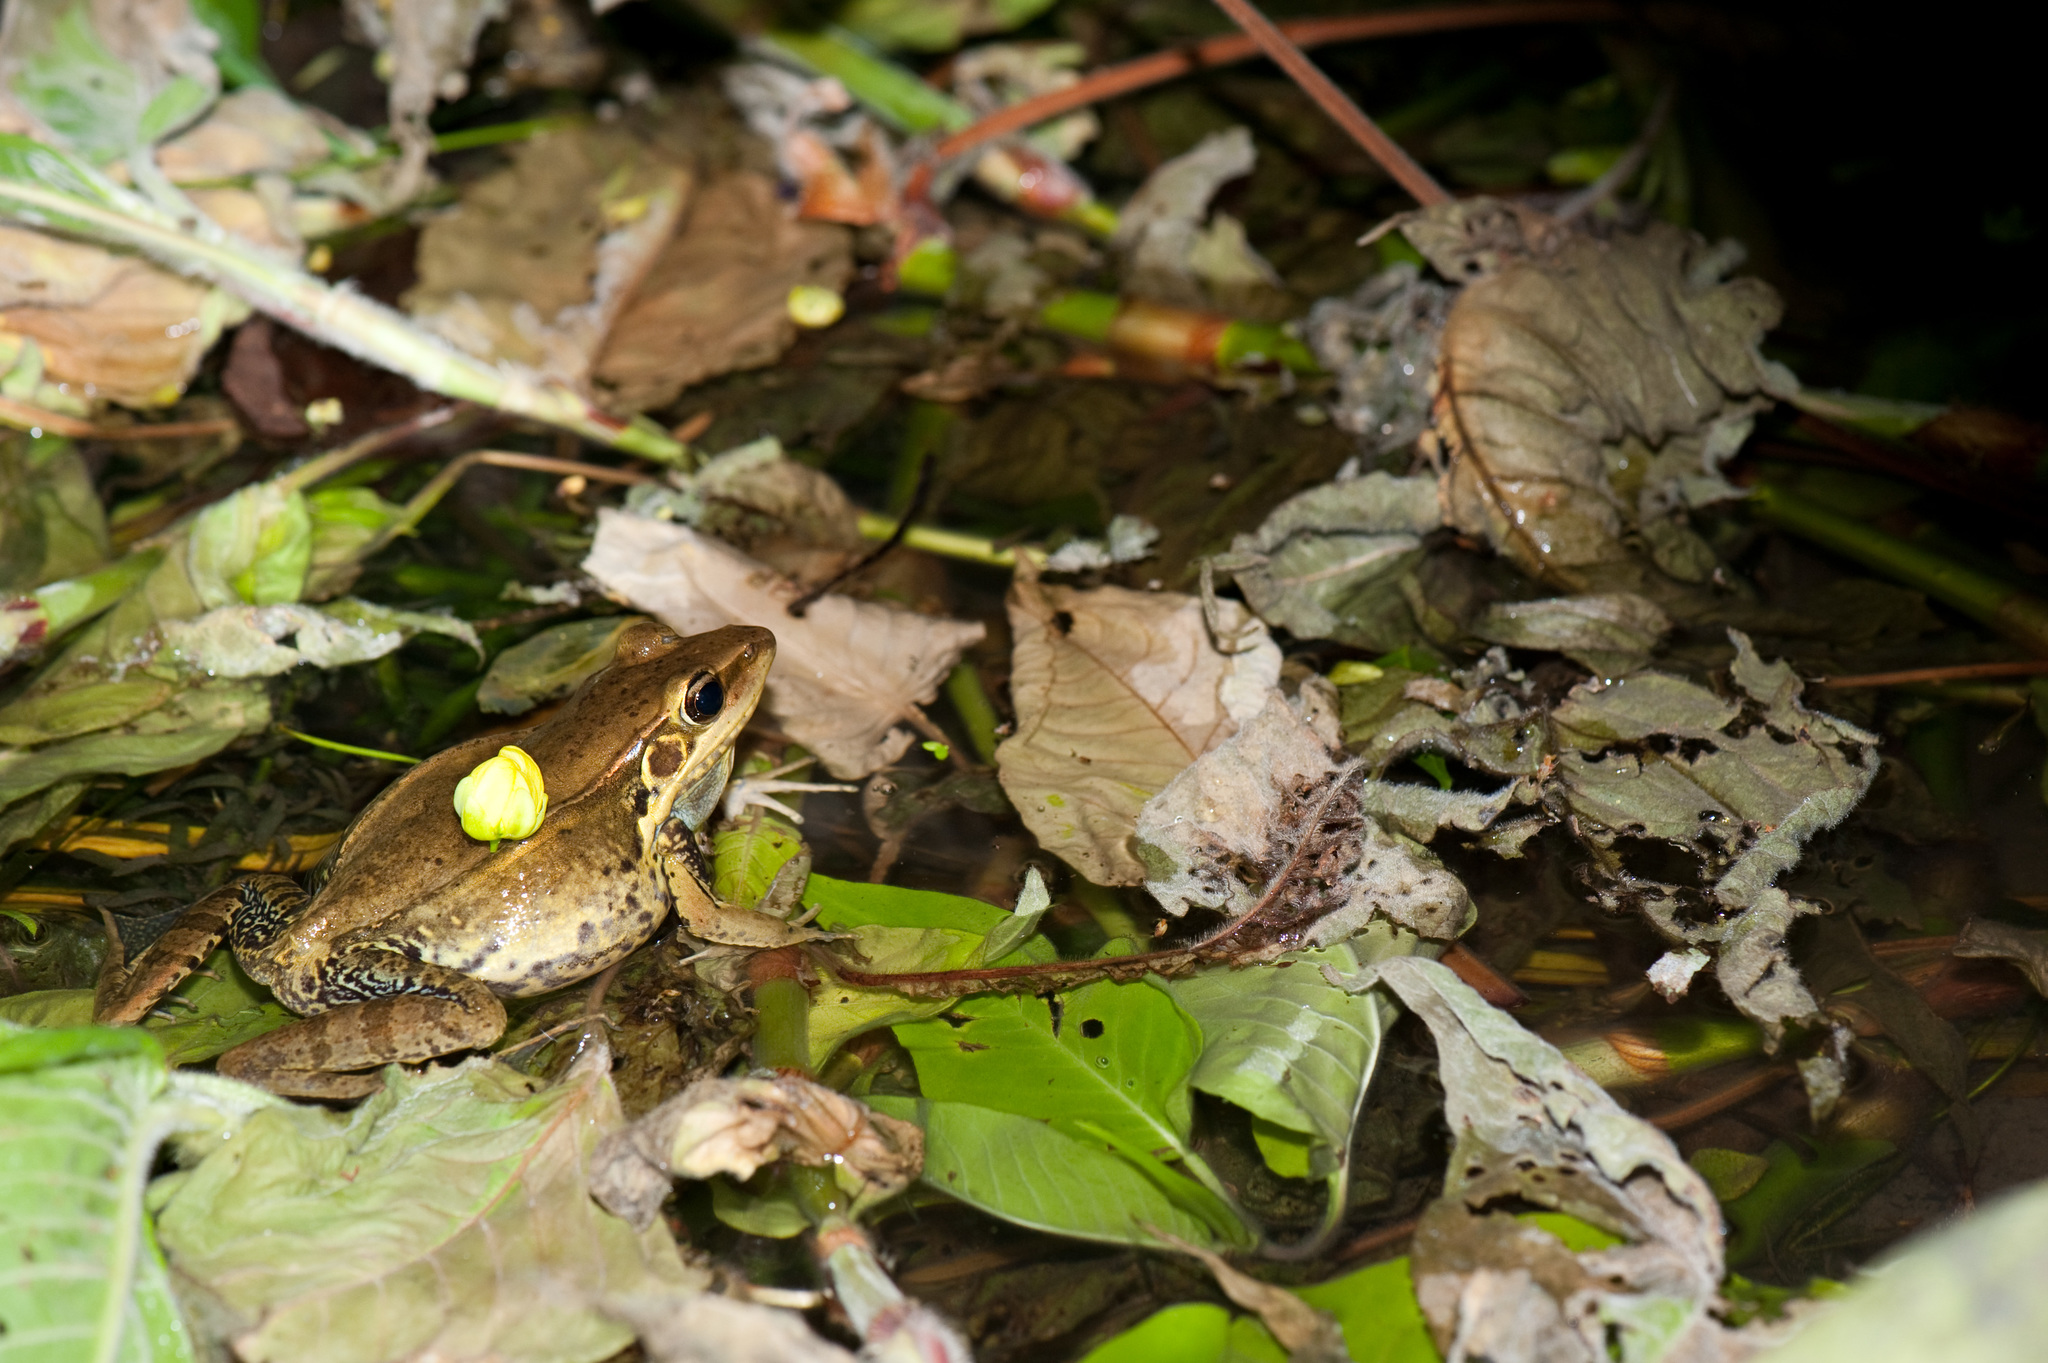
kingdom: Animalia
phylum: Chordata
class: Amphibia
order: Anura
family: Ranidae
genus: Sylvirana
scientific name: Sylvirana guentheri
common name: Guenther's amoy frog
